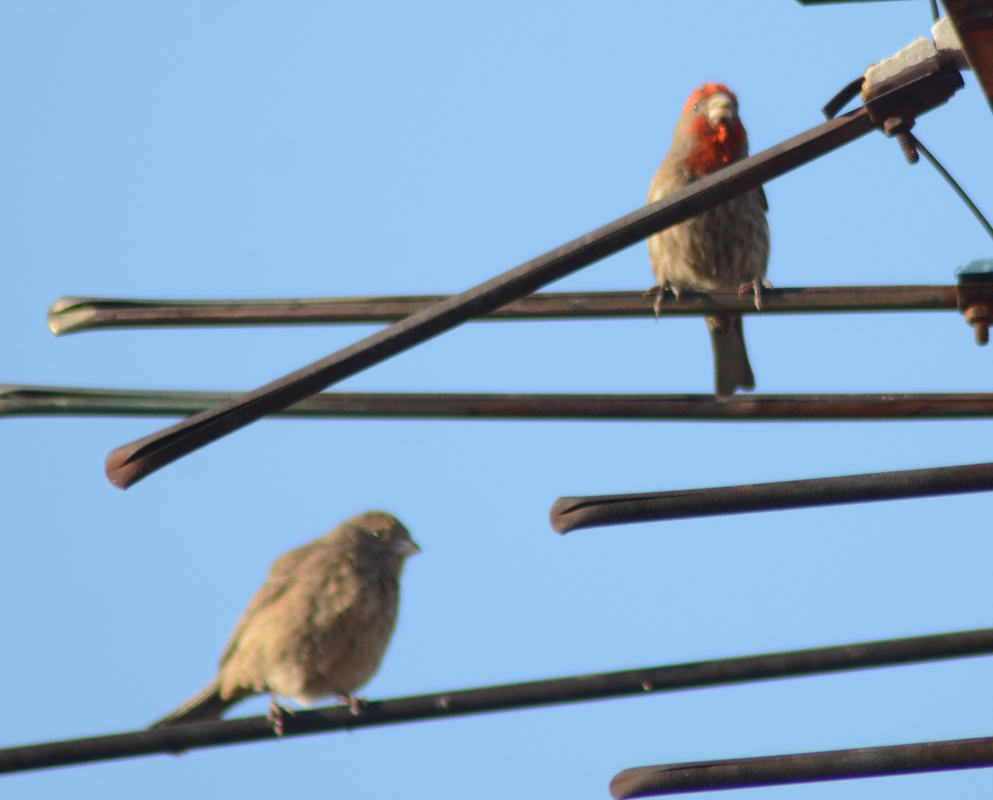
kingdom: Animalia
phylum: Chordata
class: Aves
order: Passeriformes
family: Fringillidae
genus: Haemorhous
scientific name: Haemorhous mexicanus
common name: House finch
